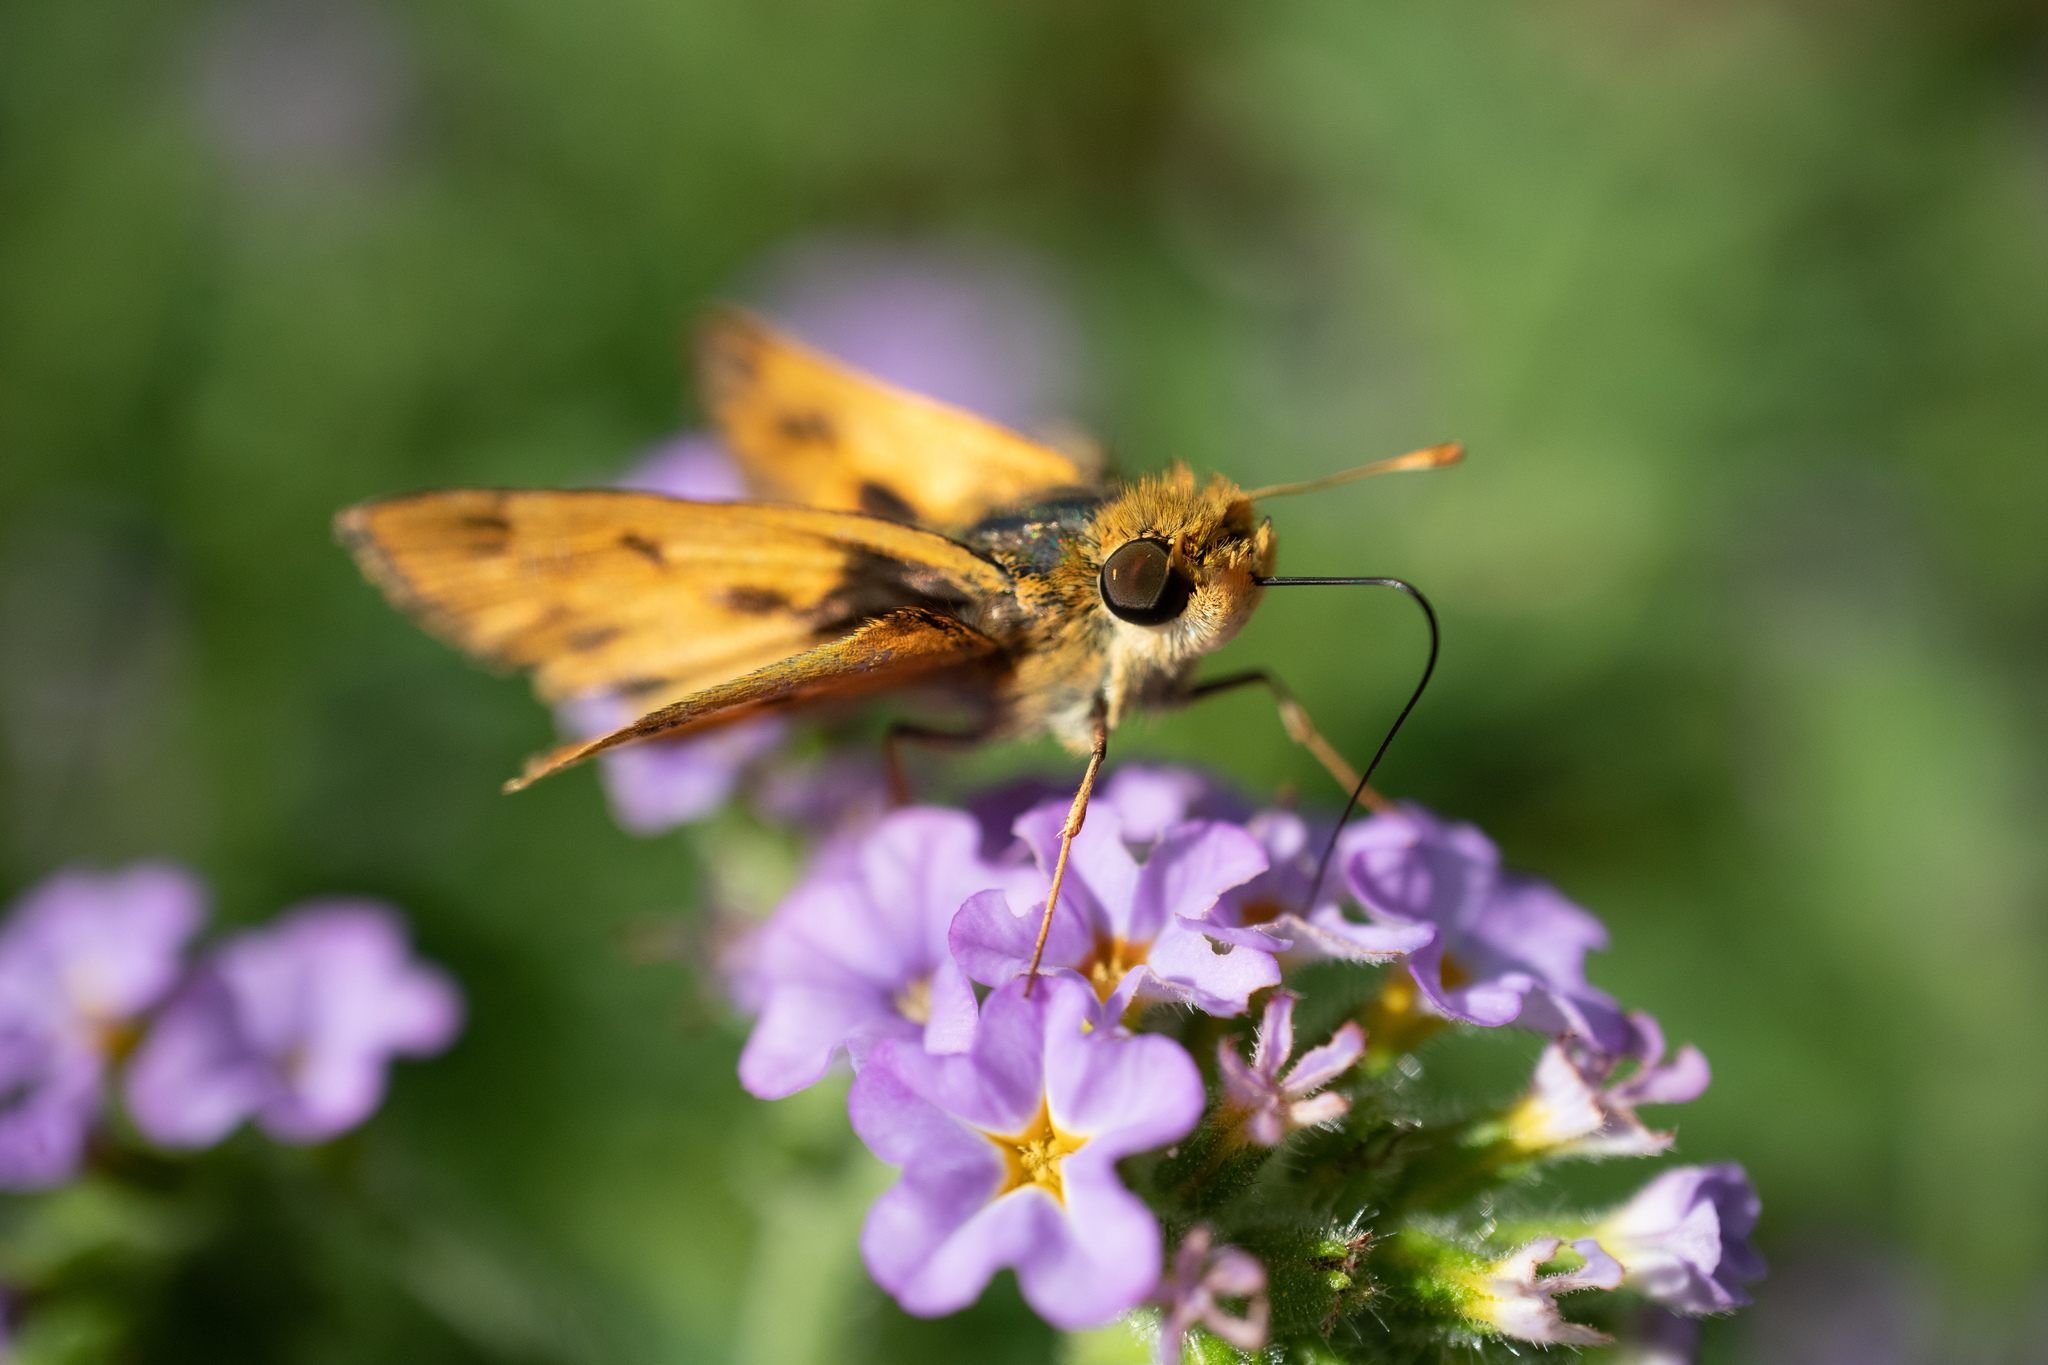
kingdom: Animalia
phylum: Arthropoda
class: Insecta
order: Lepidoptera
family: Hesperiidae
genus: Hylephila
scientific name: Hylephila phyleus
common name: Fiery skipper
